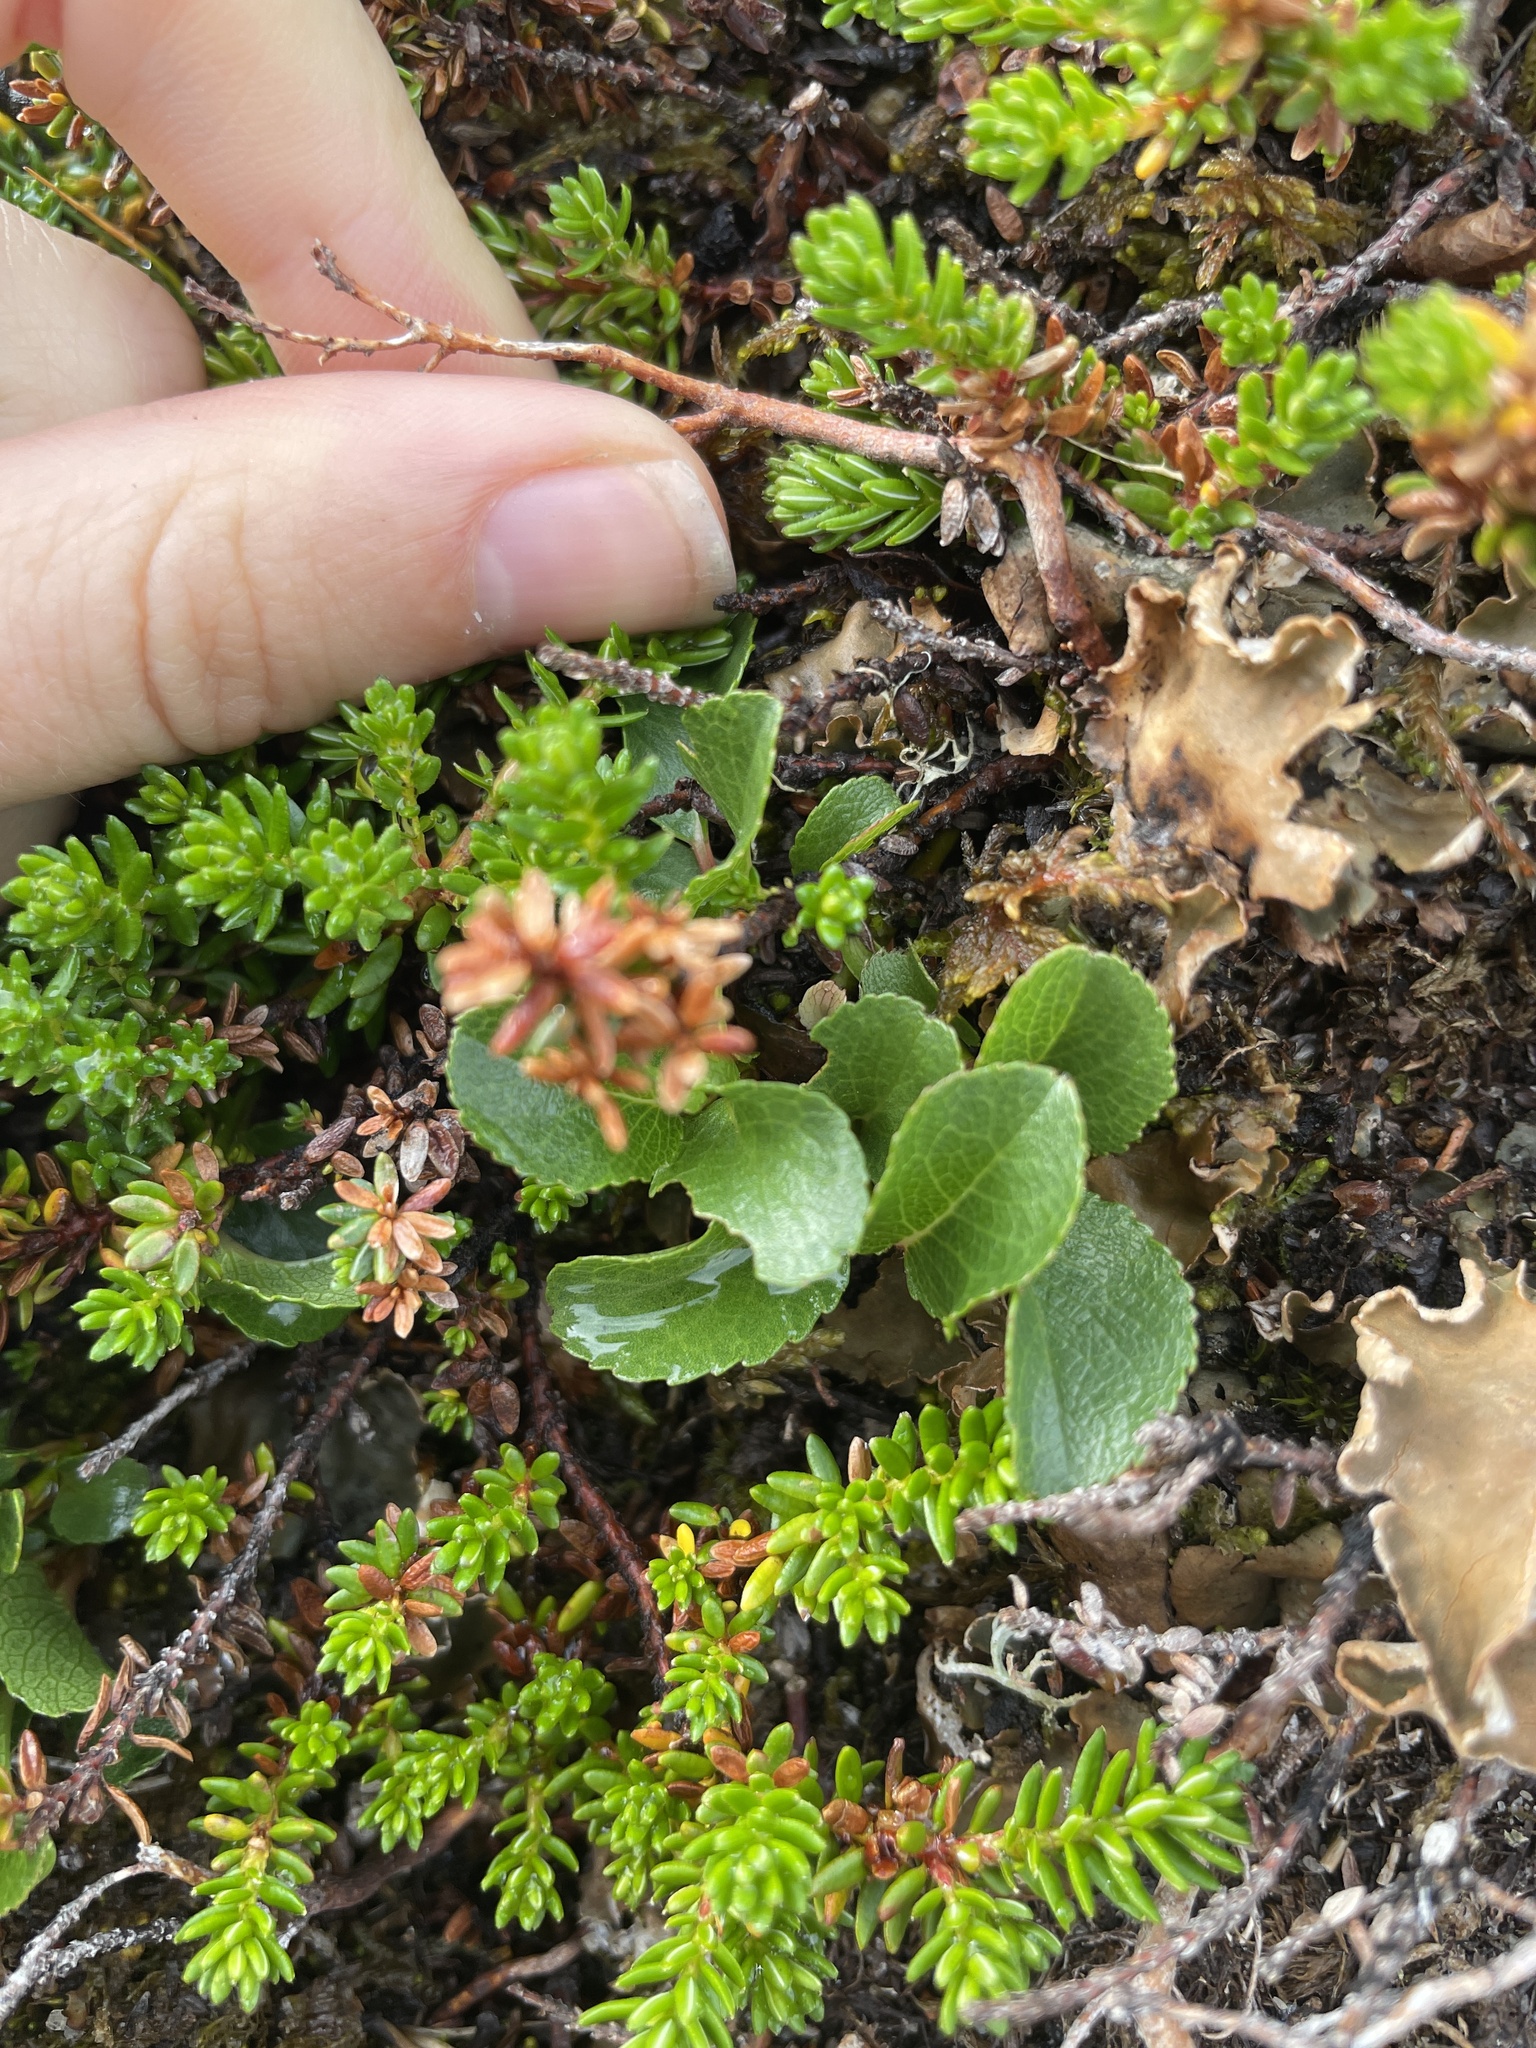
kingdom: Plantae
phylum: Tracheophyta
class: Magnoliopsida
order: Malpighiales
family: Salicaceae
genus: Salix
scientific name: Salix herbacea
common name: Dwarf willow
